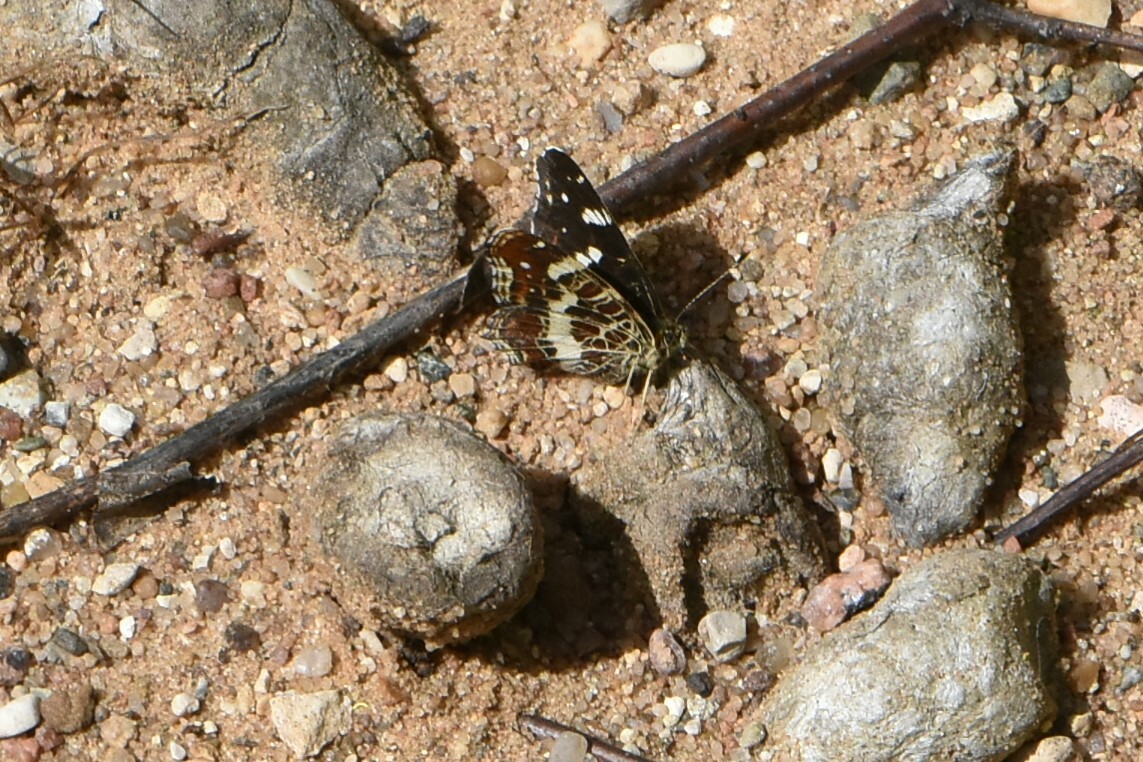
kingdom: Animalia
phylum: Arthropoda
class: Insecta
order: Lepidoptera
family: Nymphalidae
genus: Araschnia
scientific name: Araschnia levana
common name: Map butterfly
